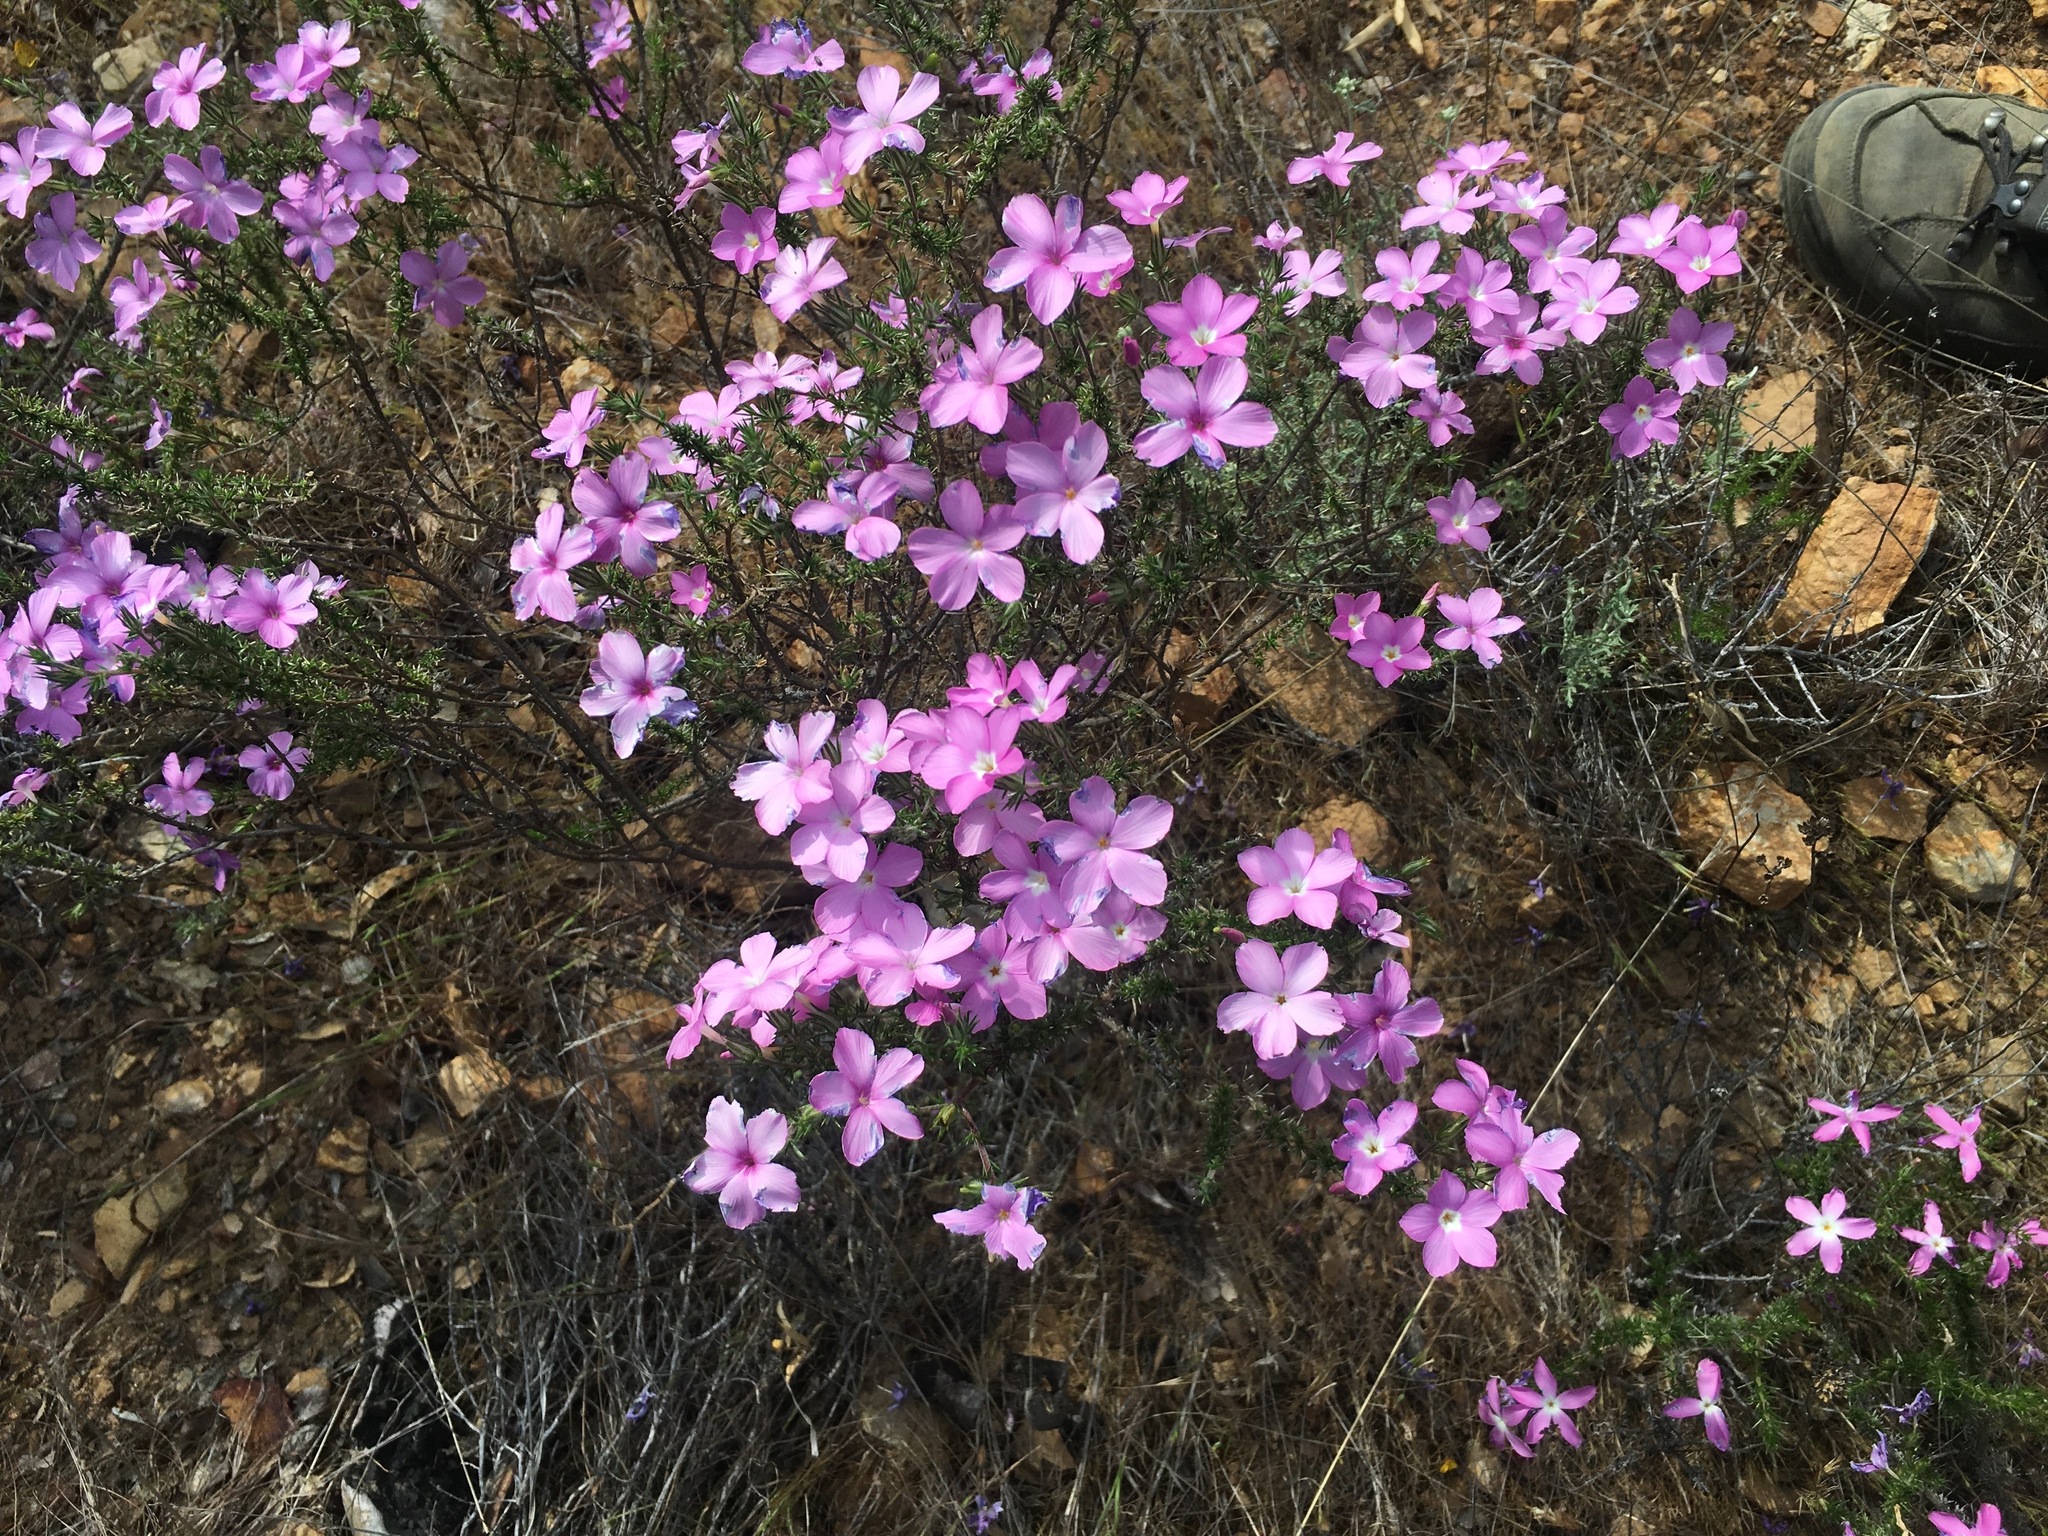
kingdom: Plantae
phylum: Tracheophyta
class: Magnoliopsida
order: Ericales
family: Polemoniaceae
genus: Linanthus
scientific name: Linanthus californicus
